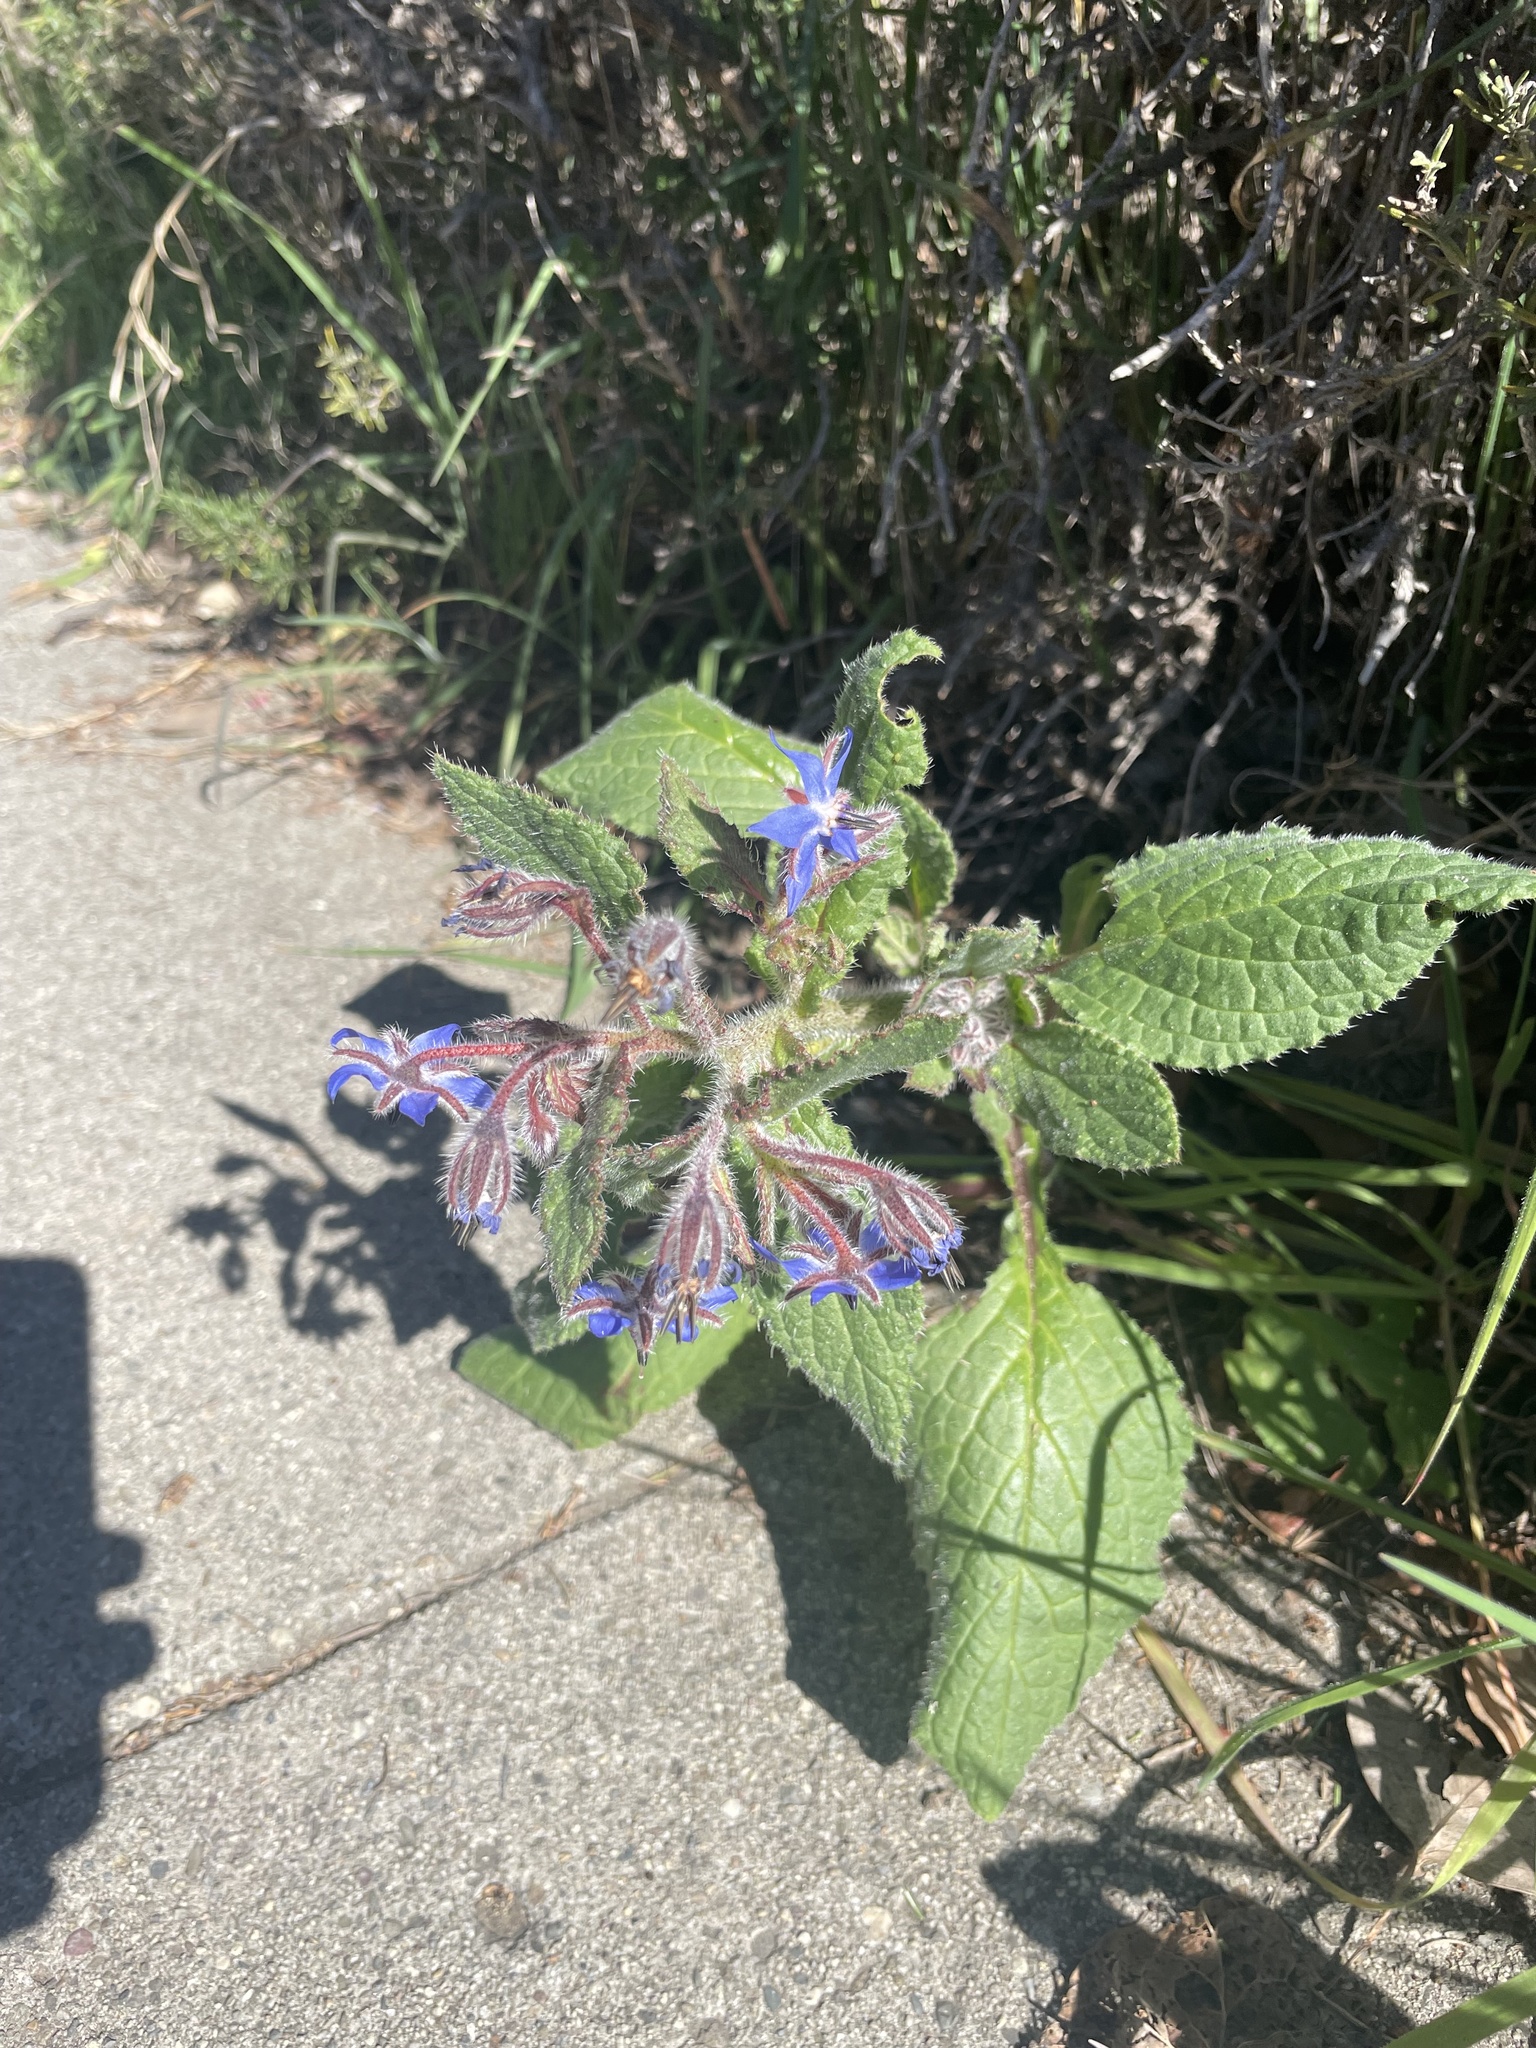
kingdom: Plantae
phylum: Tracheophyta
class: Magnoliopsida
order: Boraginales
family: Boraginaceae
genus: Borago
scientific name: Borago officinalis
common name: Borage
